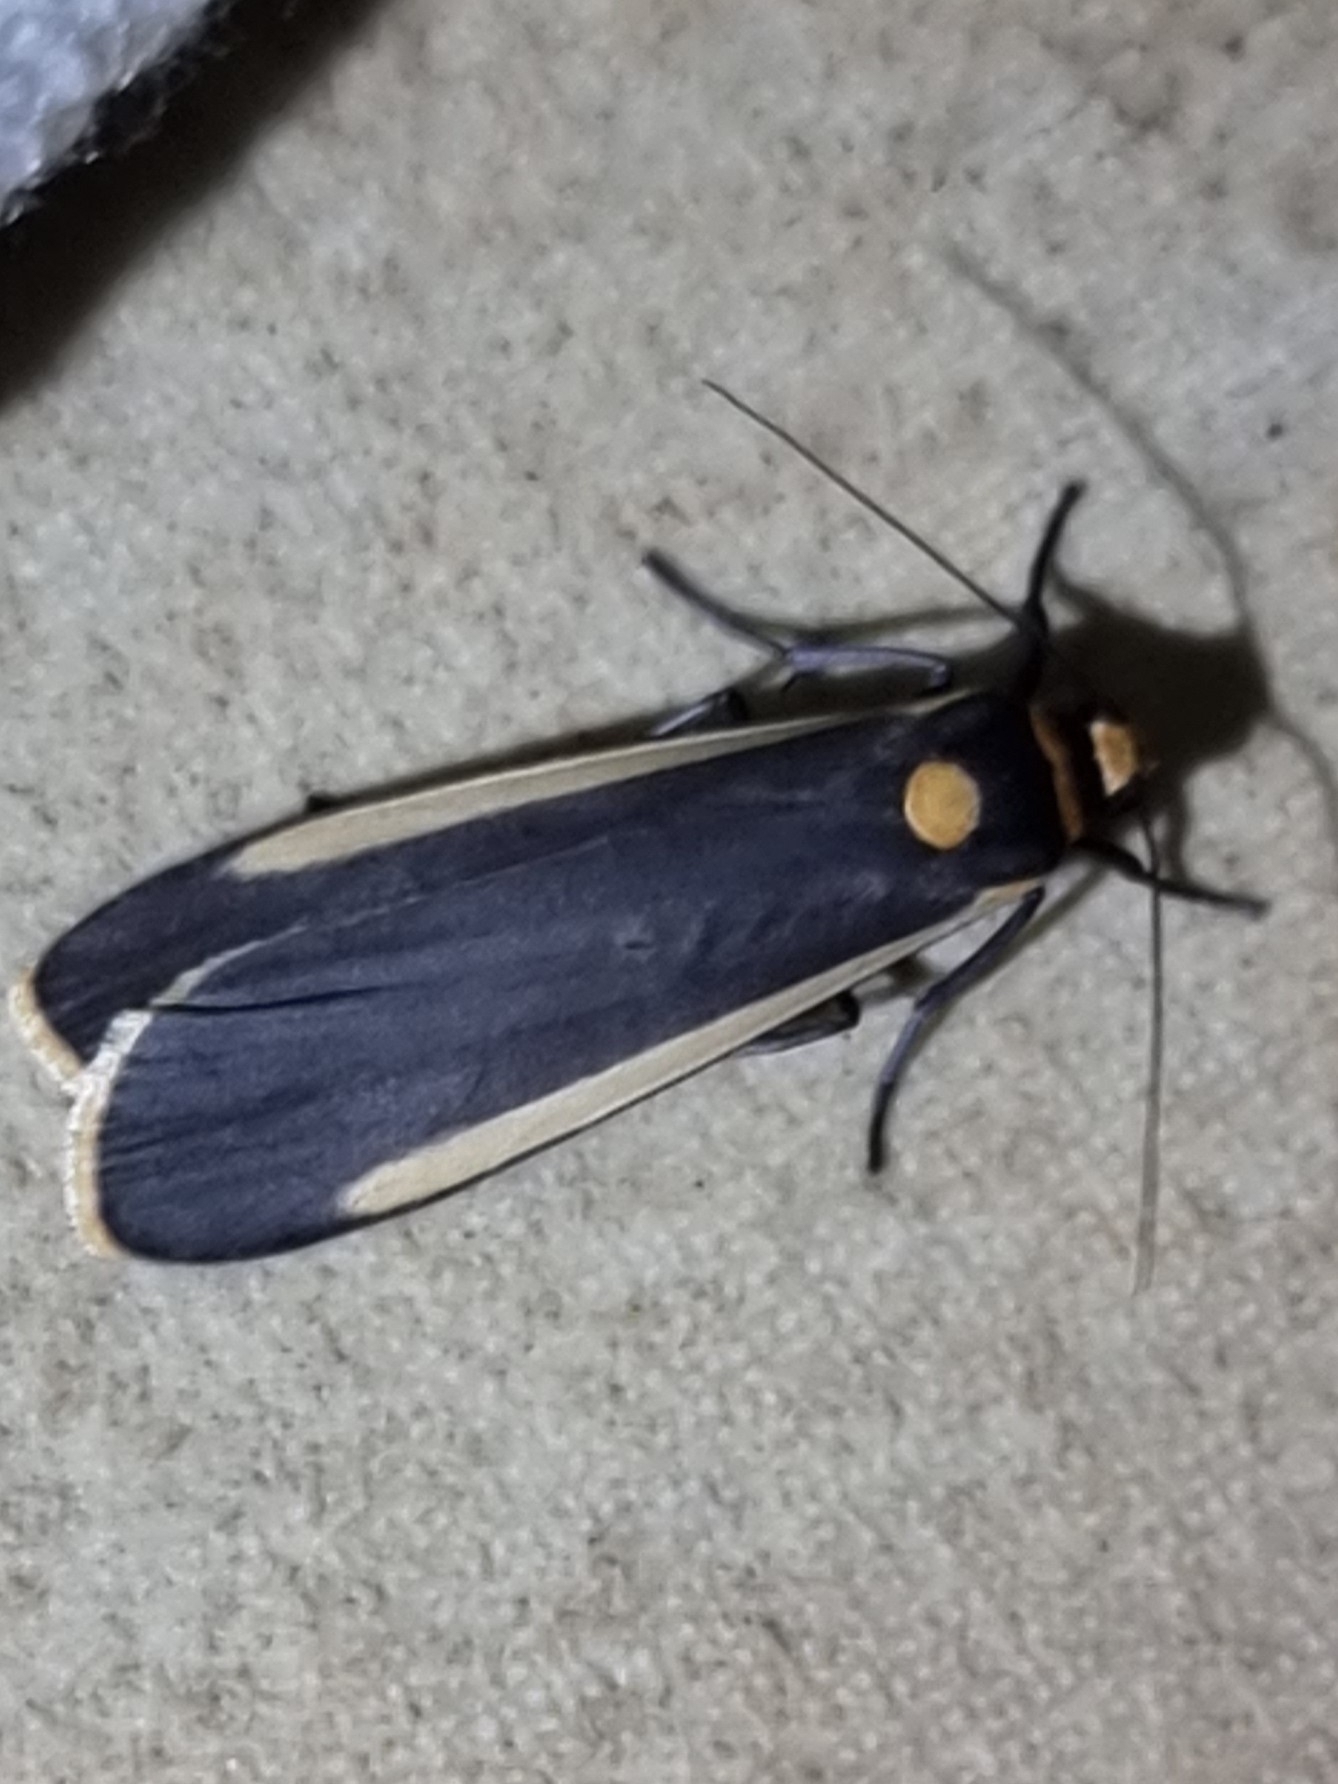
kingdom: Animalia
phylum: Arthropoda
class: Insecta
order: Lepidoptera
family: Erebidae
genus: Brunia
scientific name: Brunia replana
